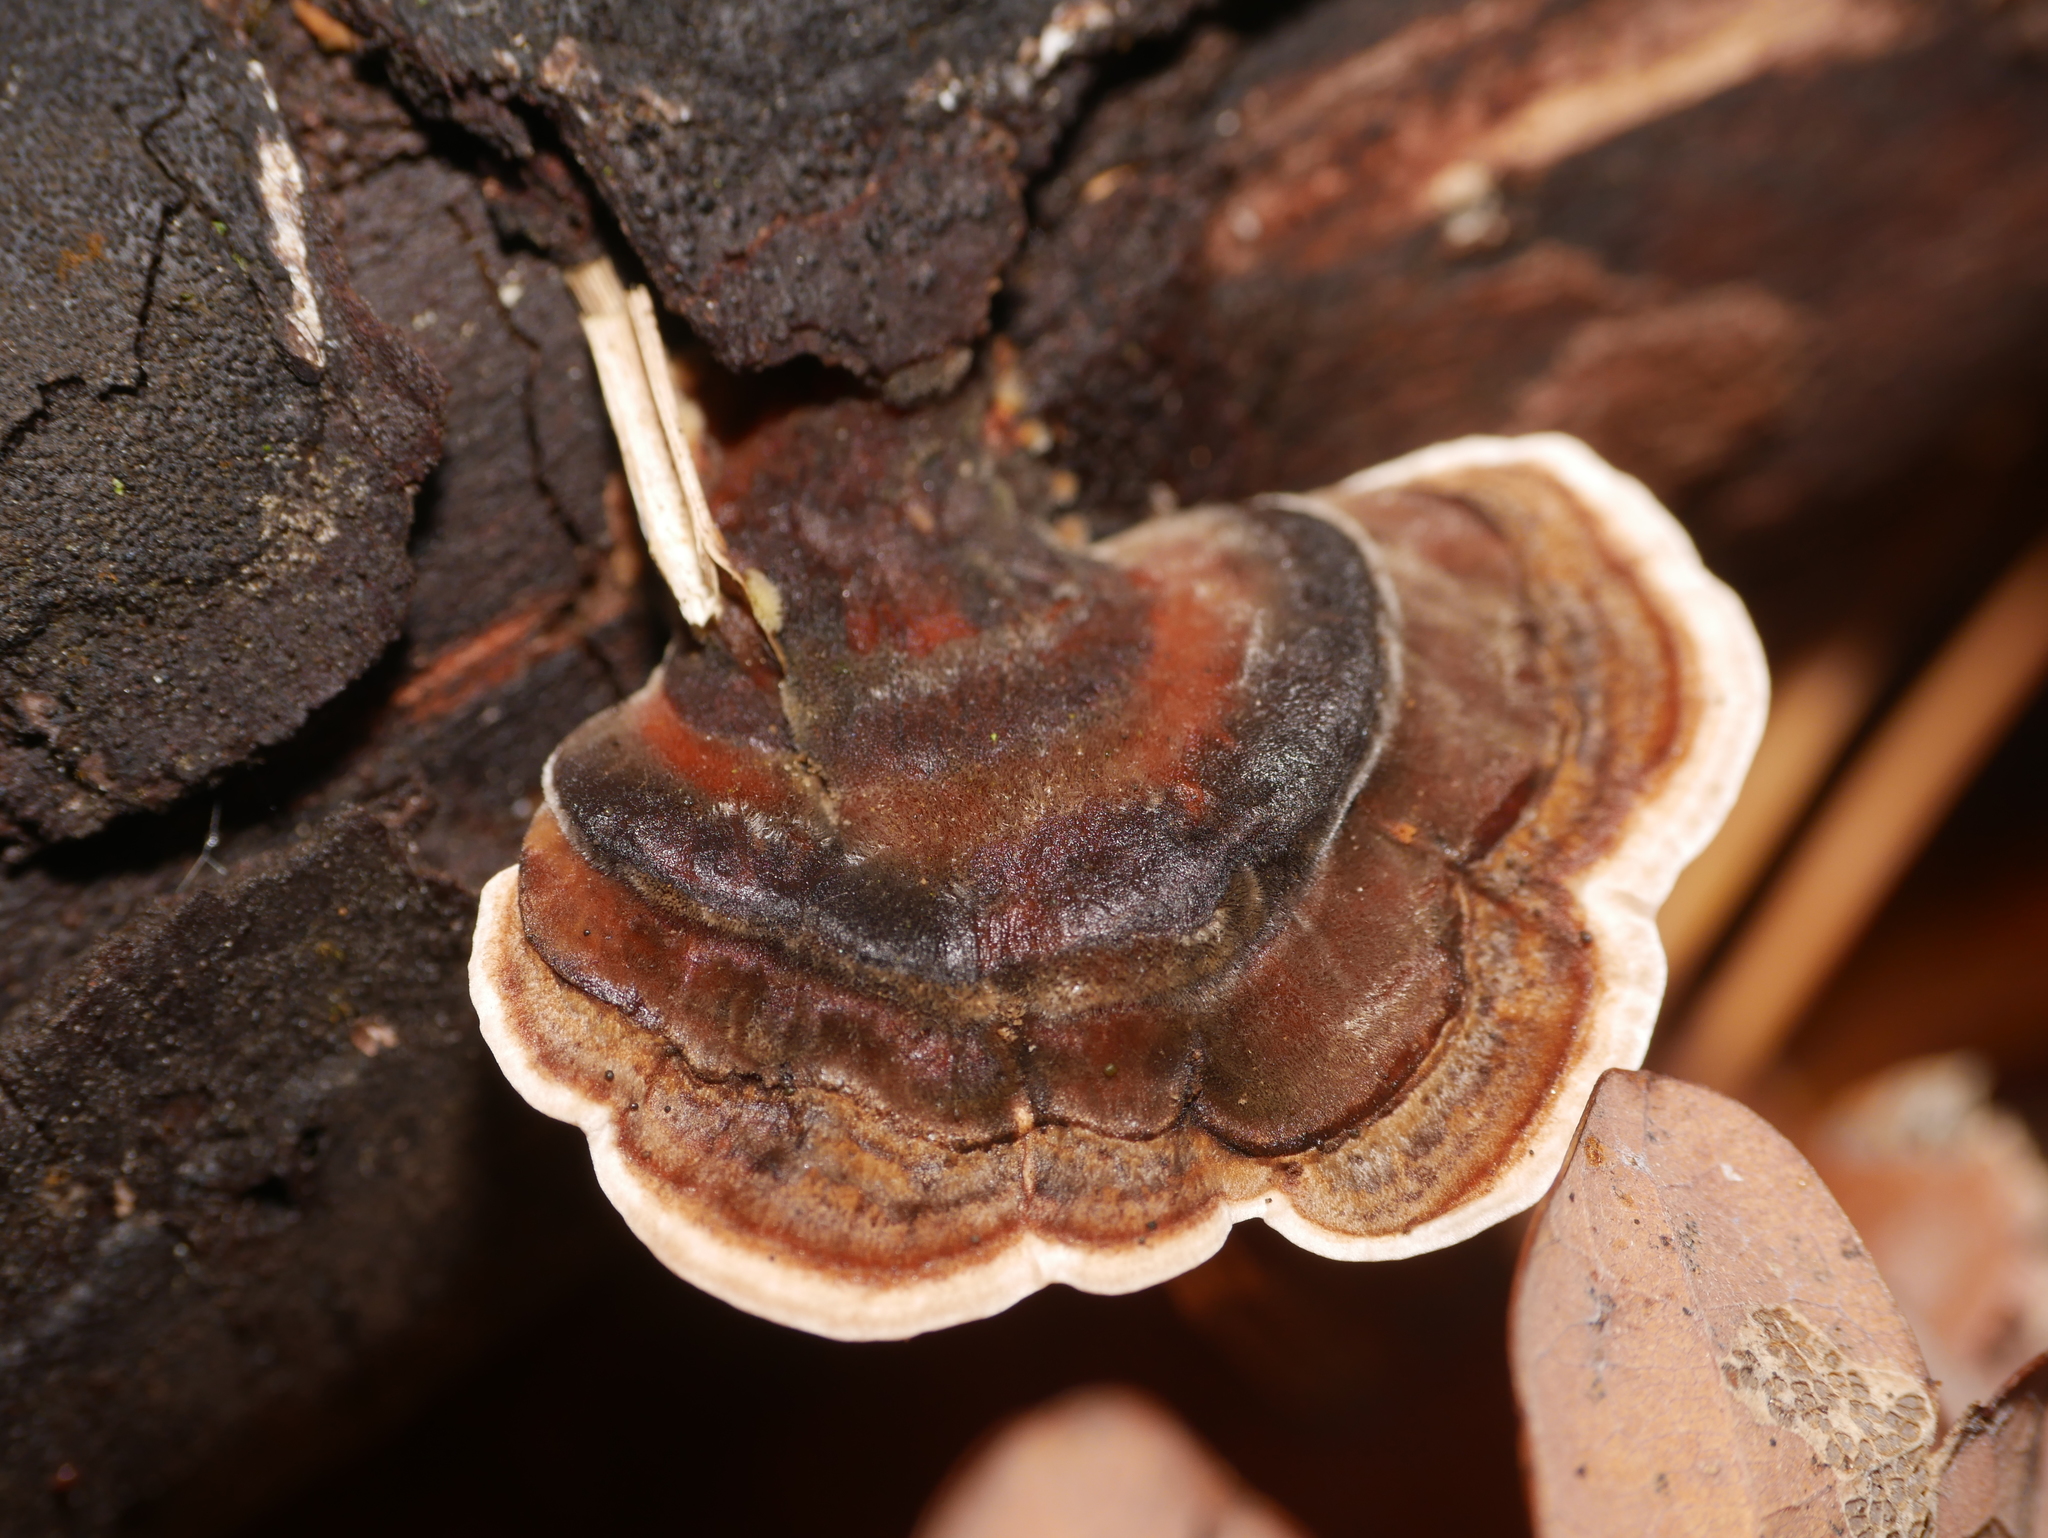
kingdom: Fungi
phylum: Basidiomycota
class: Agaricomycetes
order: Polyporales
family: Polyporaceae
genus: Trametes
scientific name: Trametes versicolor
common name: Turkeytail
